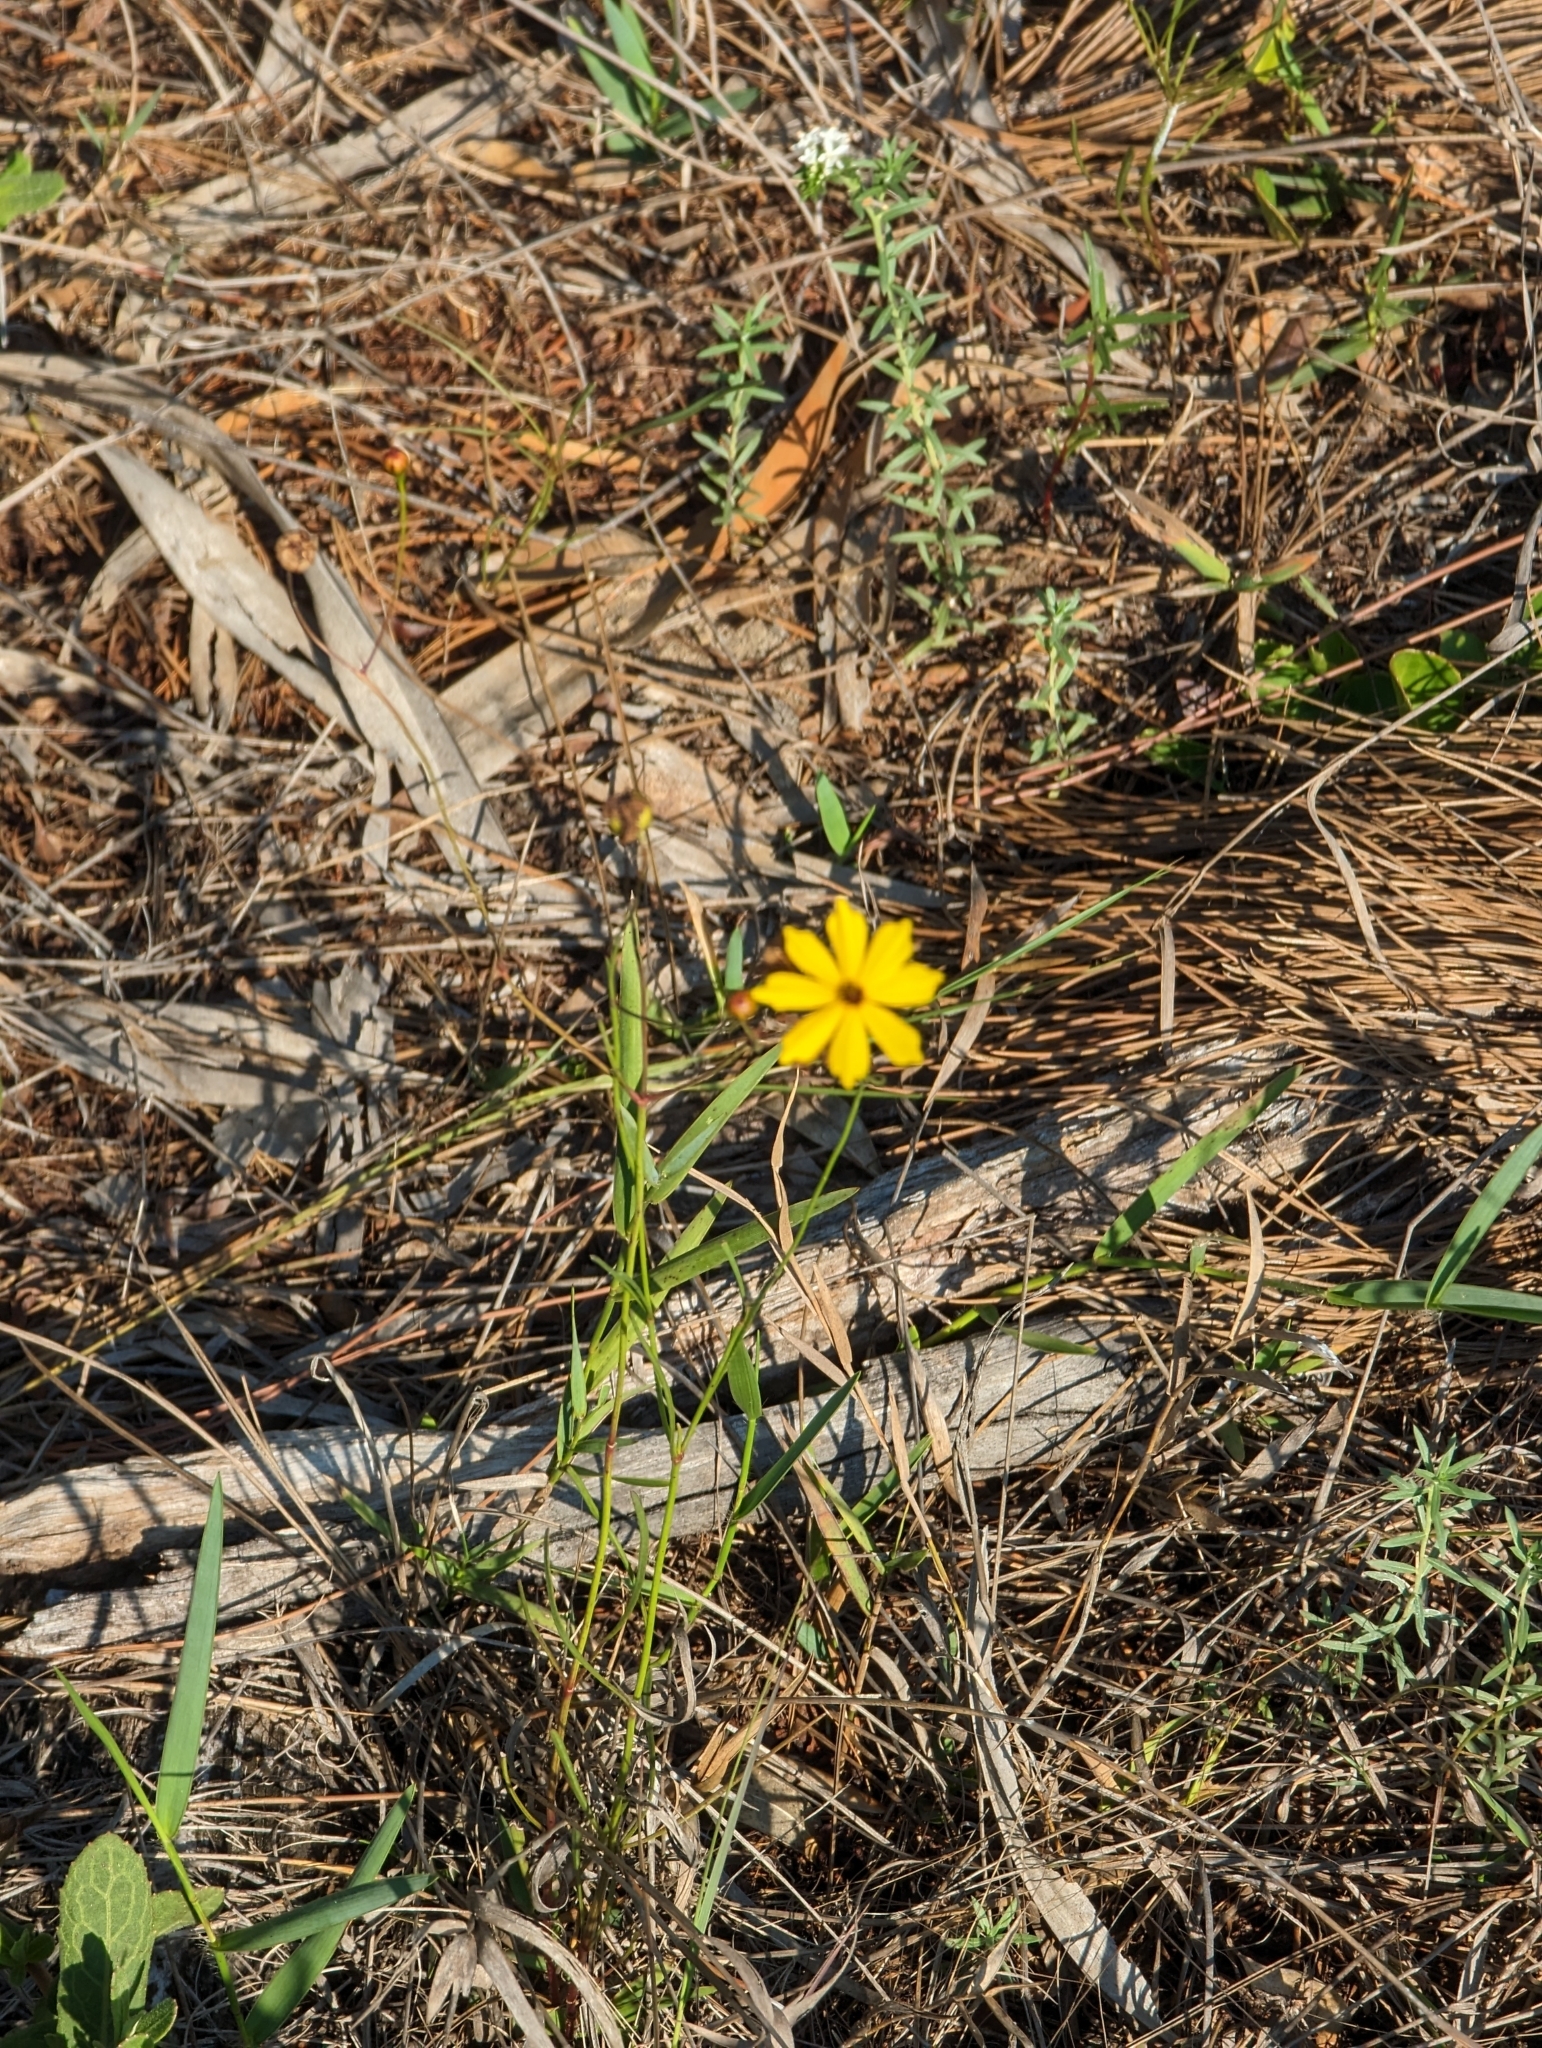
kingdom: Plantae
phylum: Tracheophyta
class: Magnoliopsida
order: Asterales
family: Asteraceae
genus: Coreopsis
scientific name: Coreopsis leavenworthii
